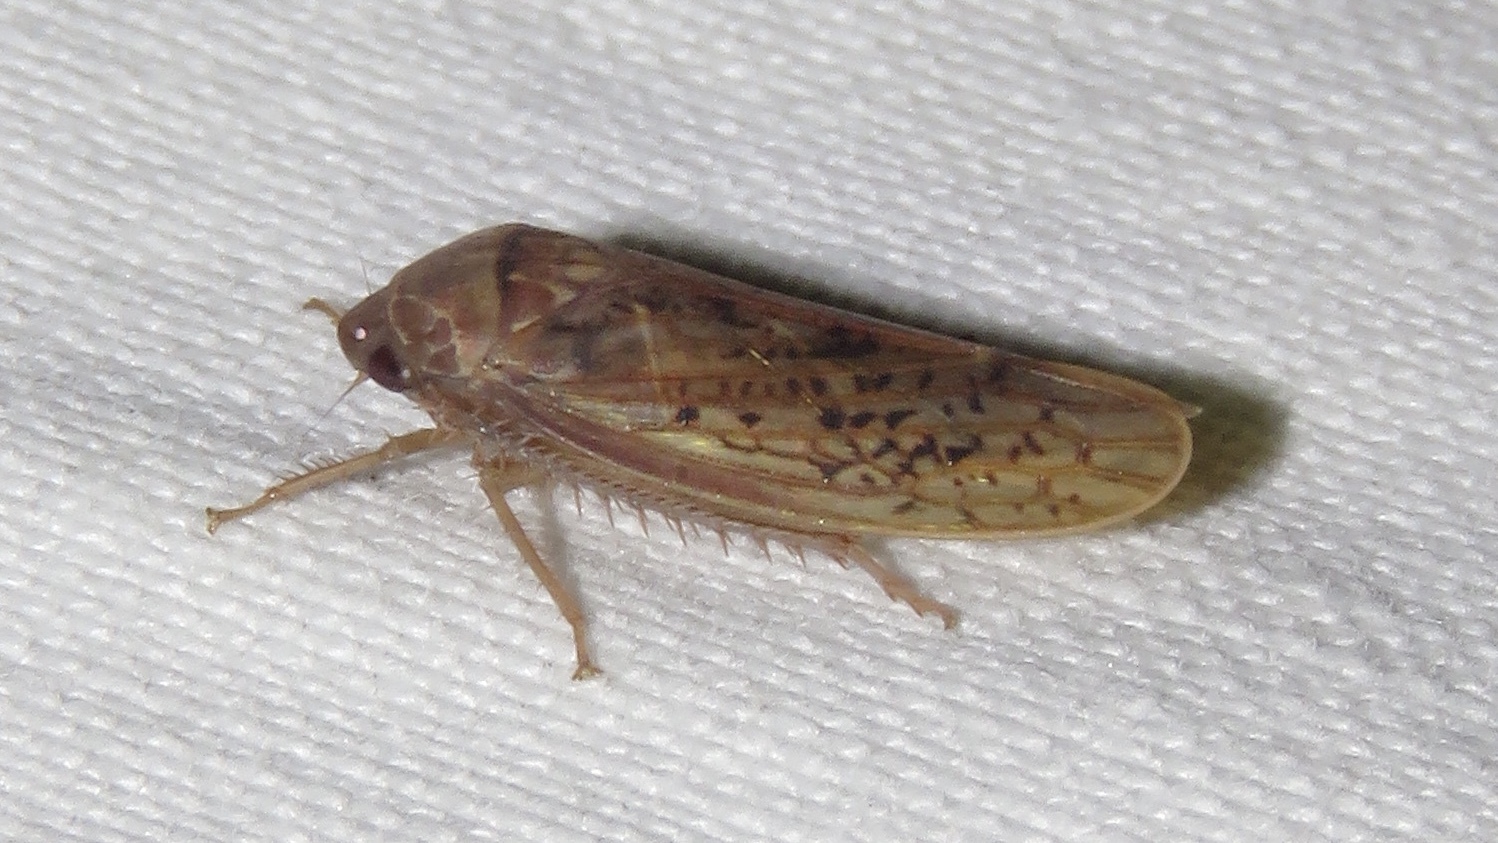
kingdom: Animalia
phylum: Arthropoda
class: Insecta
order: Hemiptera
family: Cicadellidae
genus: Ponana
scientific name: Ponana rubida
